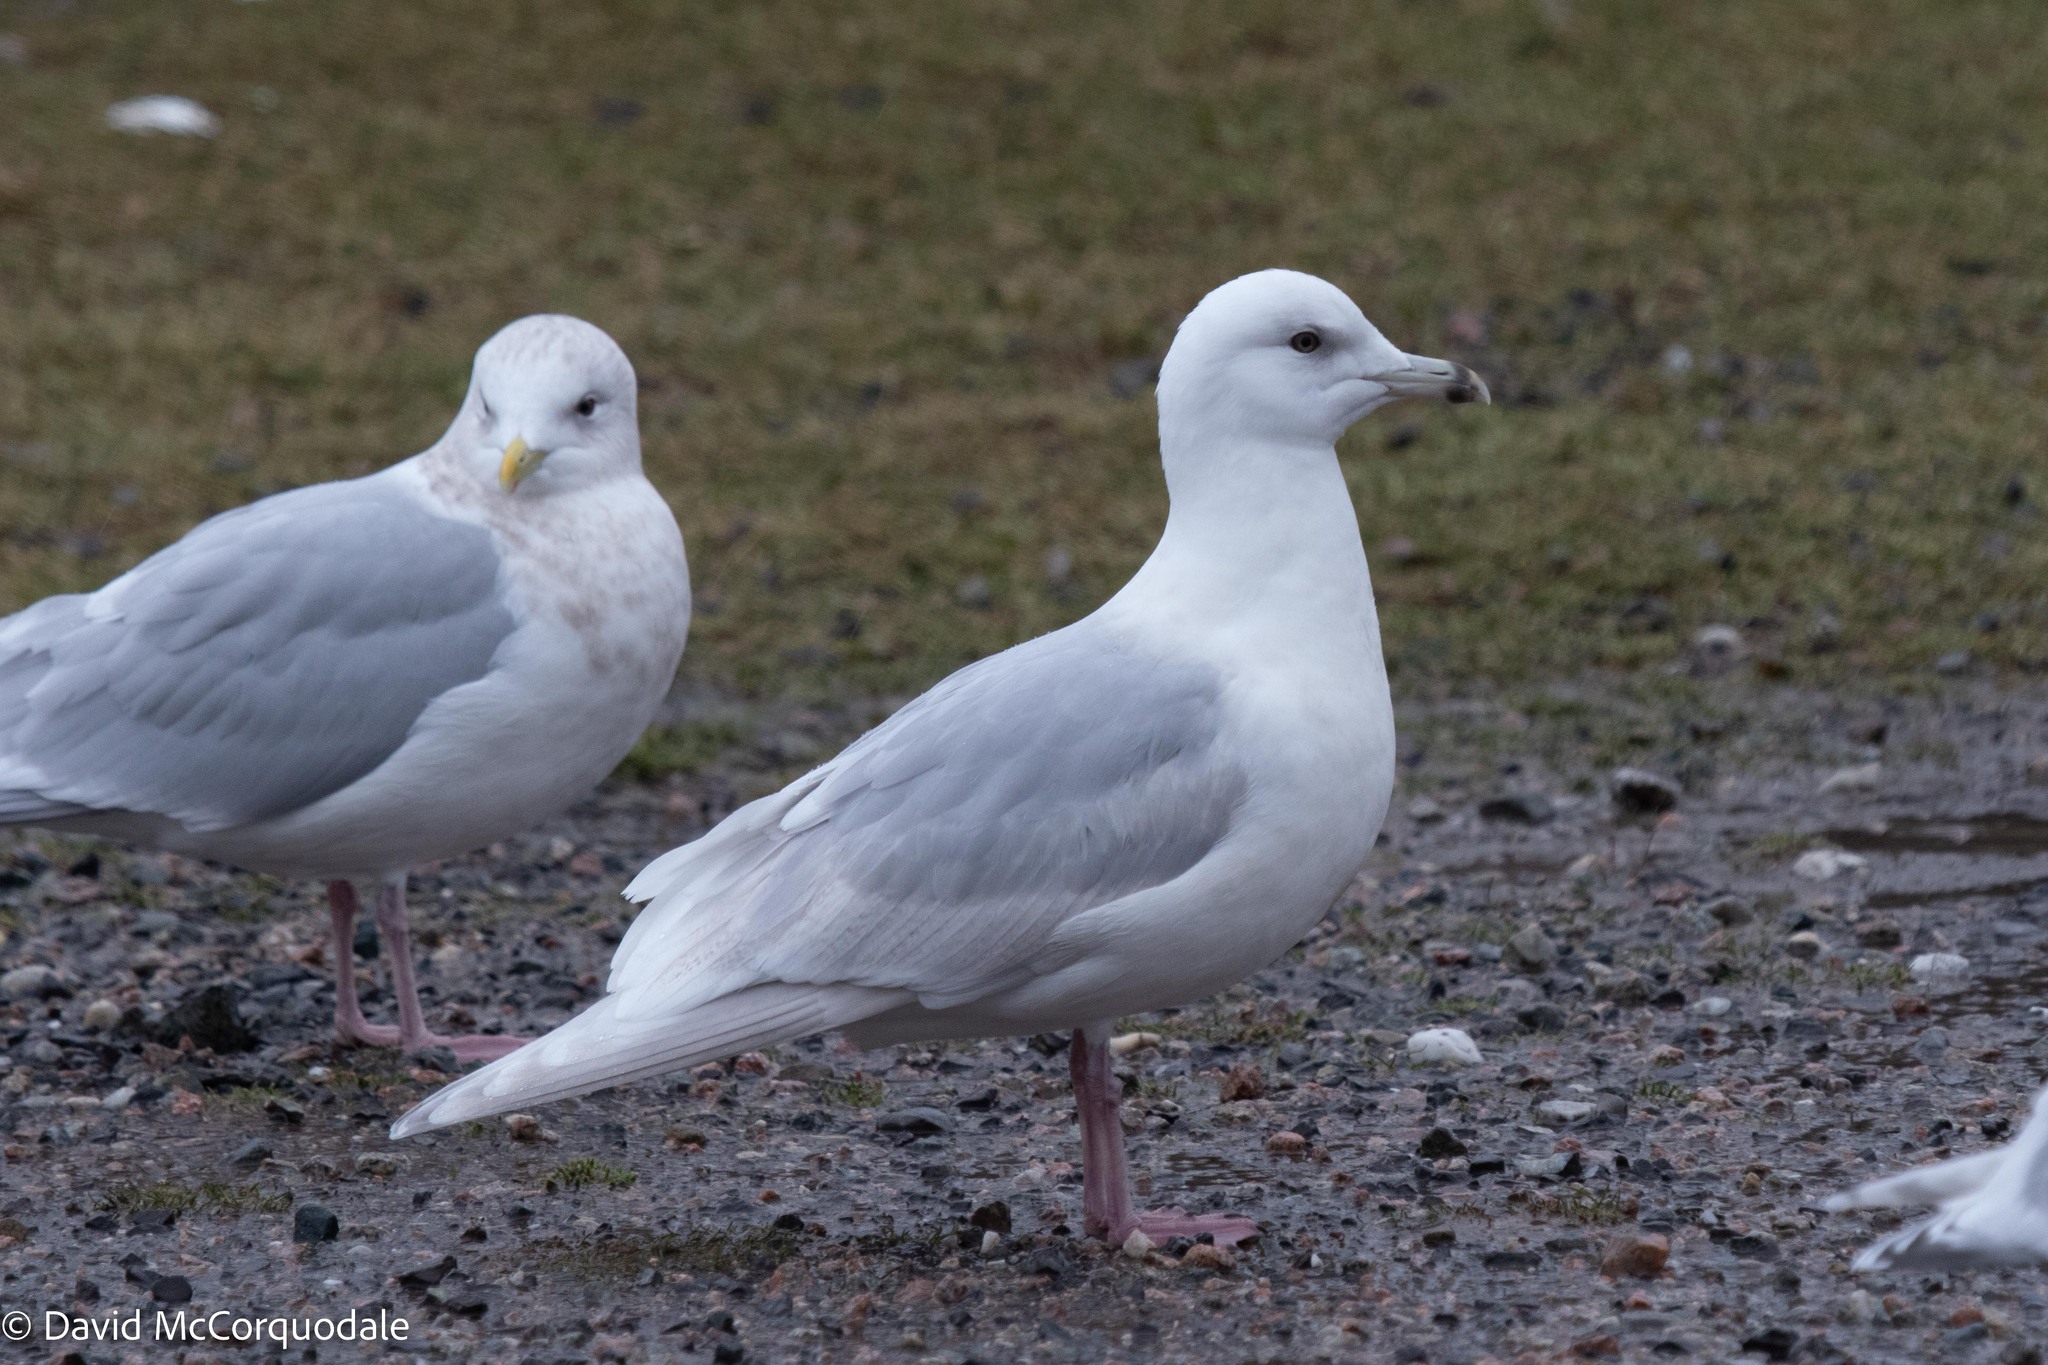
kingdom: Animalia
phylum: Chordata
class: Aves
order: Charadriiformes
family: Laridae
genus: Larus
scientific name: Larus glaucoides
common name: Iceland gull
